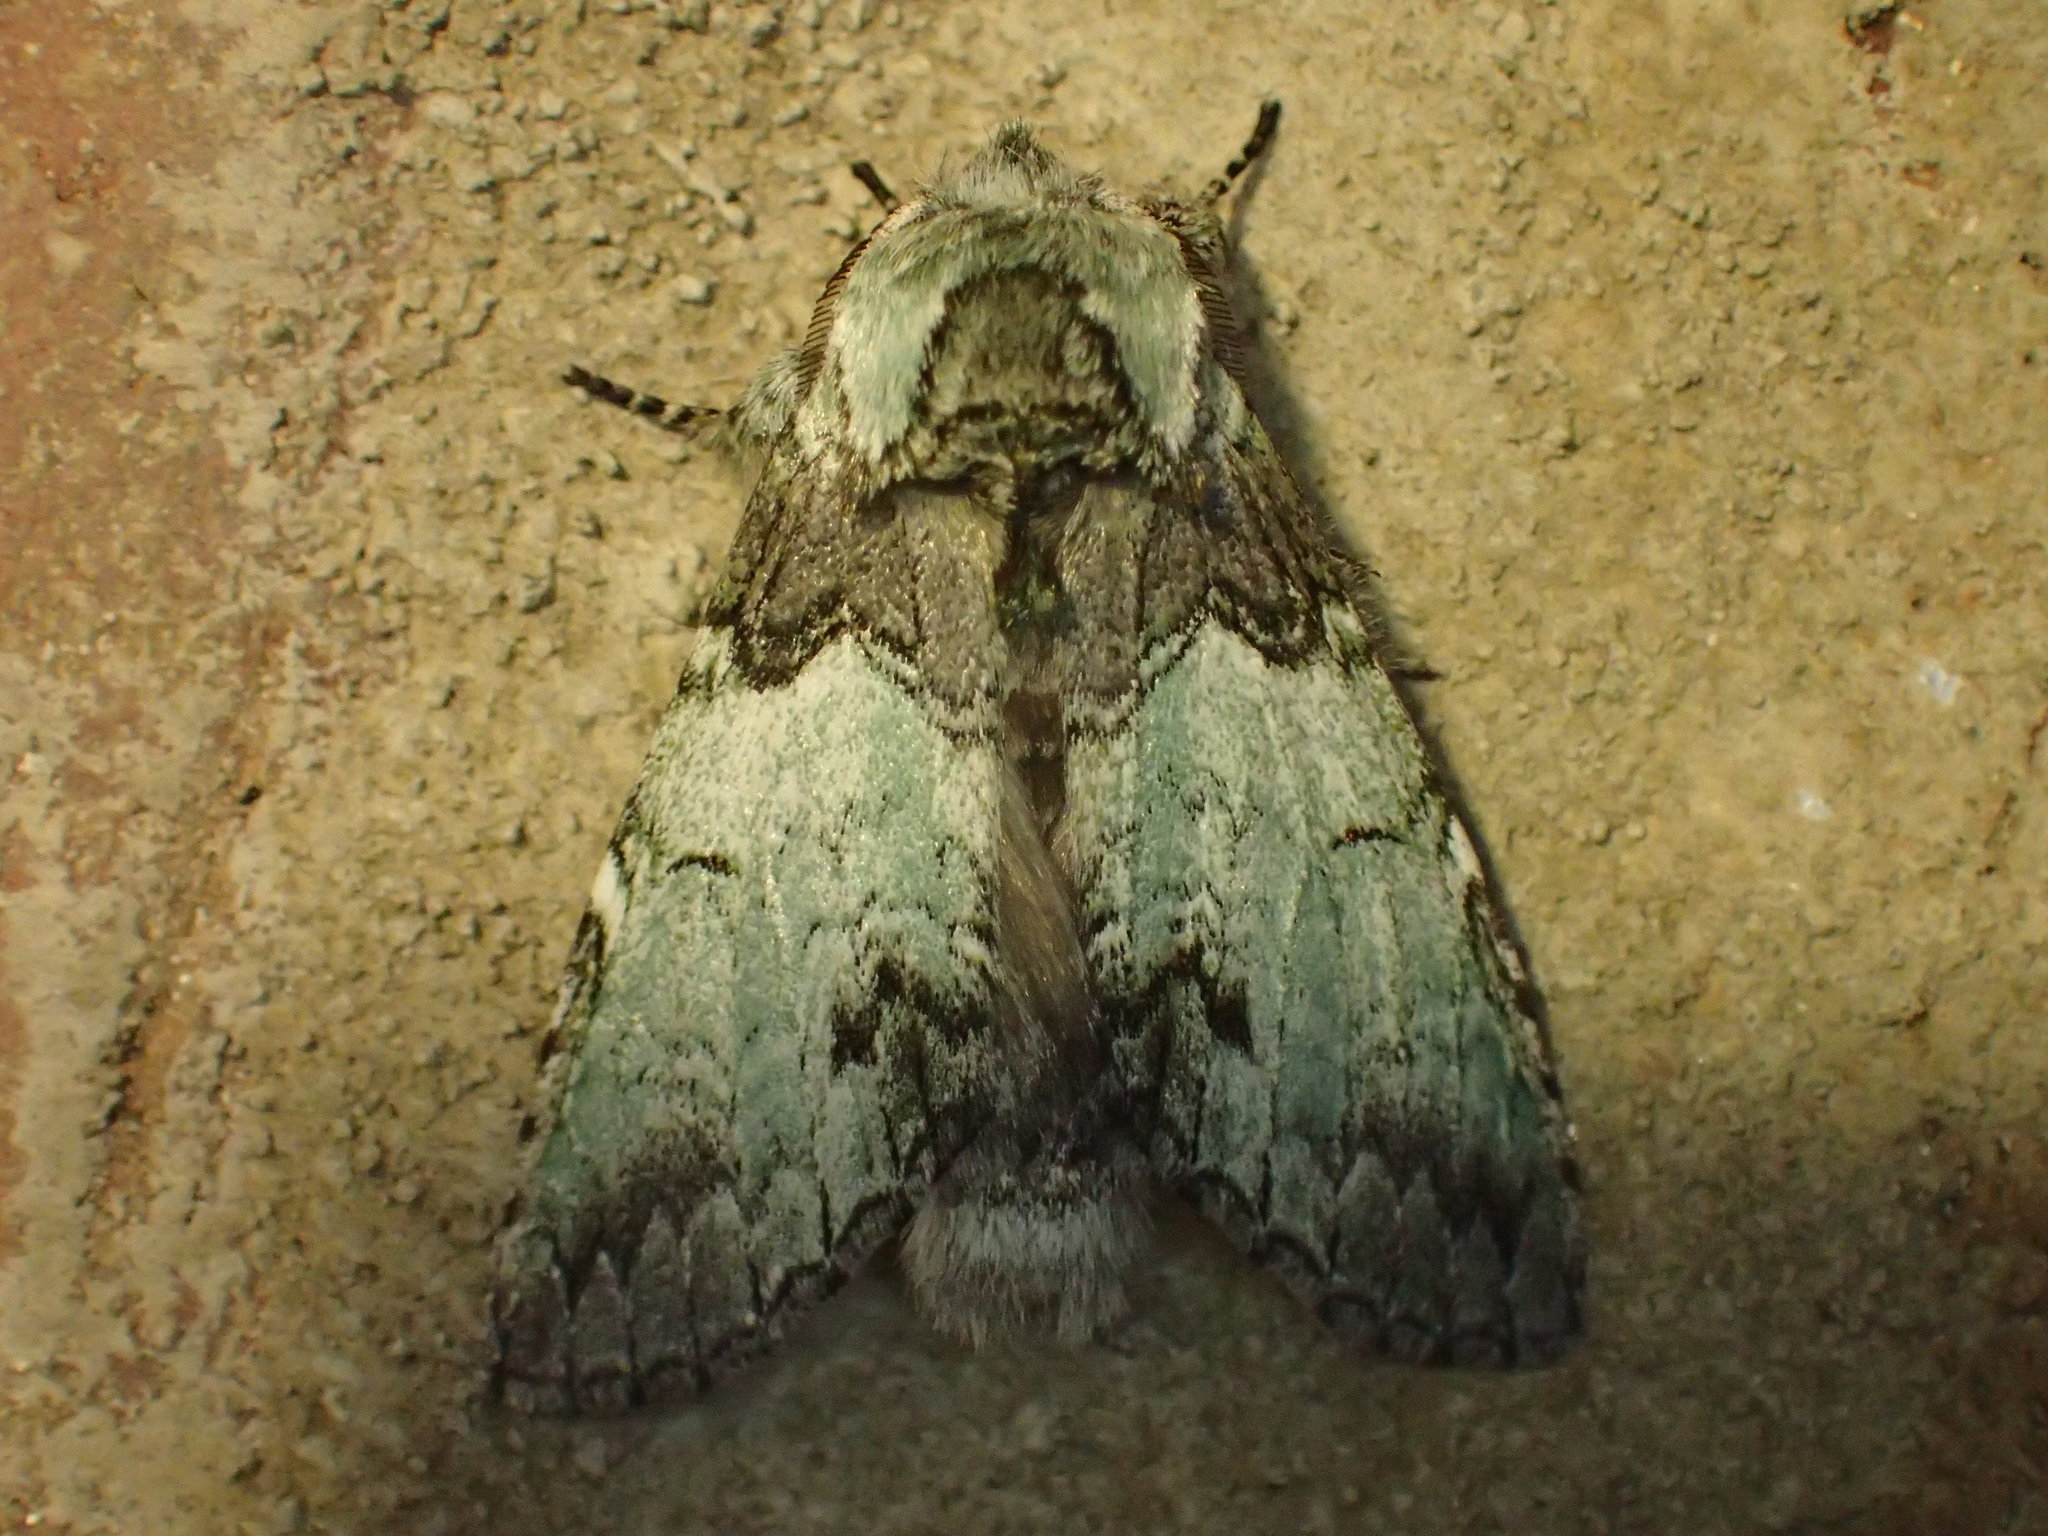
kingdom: Animalia
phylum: Arthropoda
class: Insecta
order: Lepidoptera
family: Notodontidae
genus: Macrurocampa
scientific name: Macrurocampa marthesia
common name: Mottled prominent
